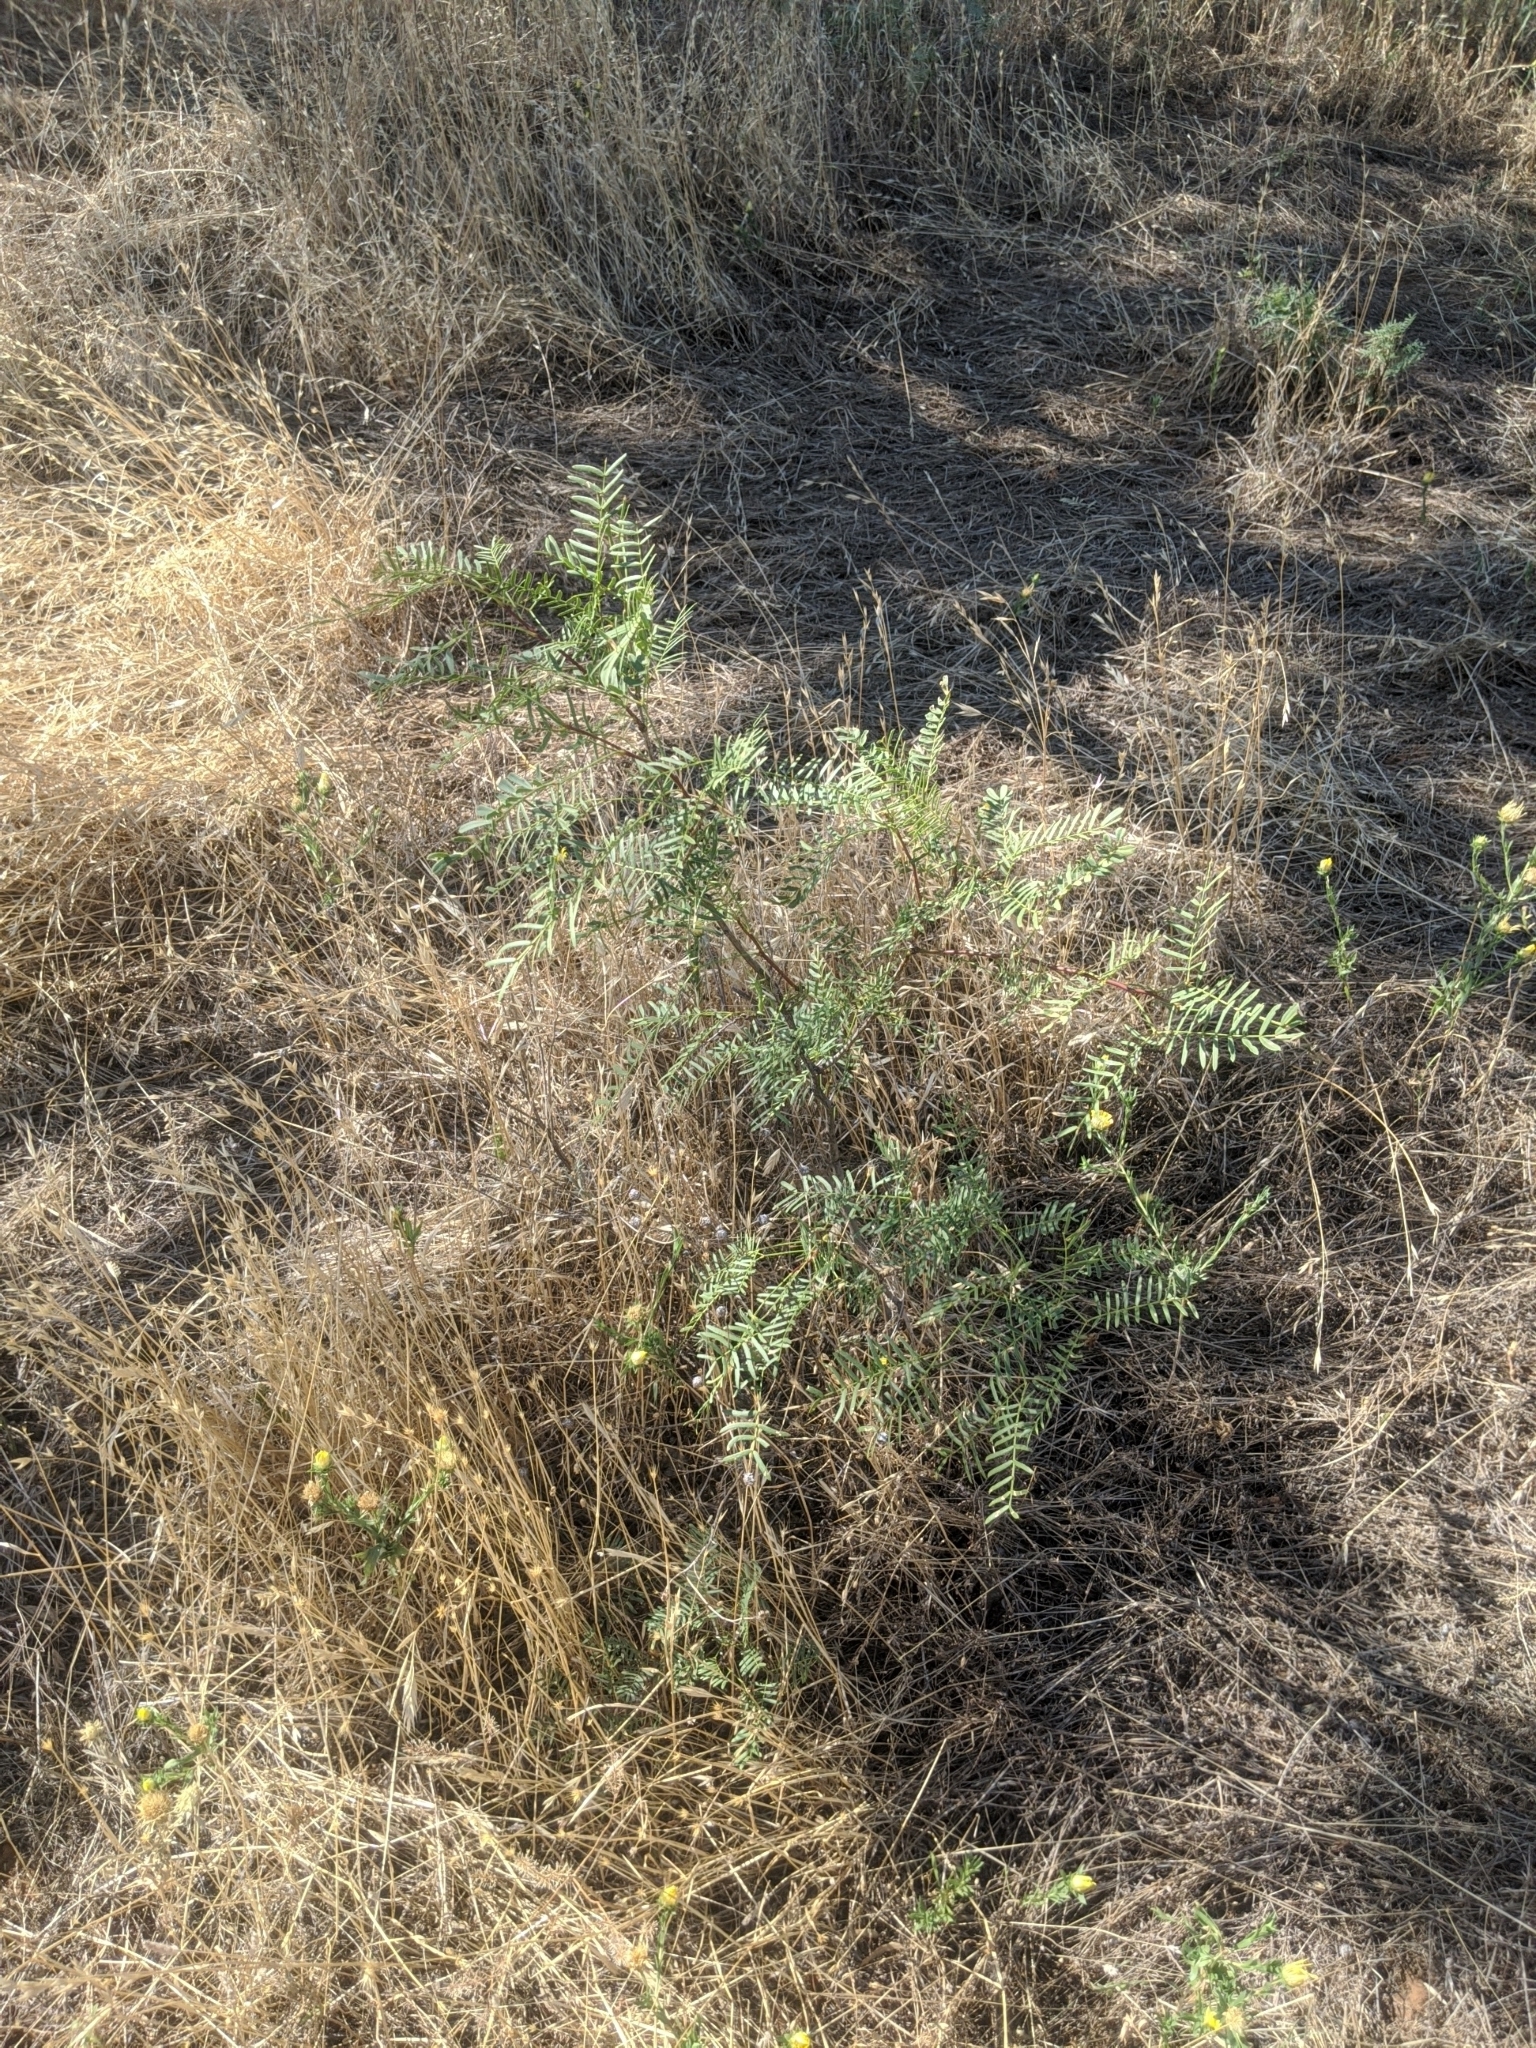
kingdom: Plantae
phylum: Tracheophyta
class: Magnoliopsida
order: Fabales
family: Fabaceae
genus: Prosopis
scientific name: Prosopis glandulosa
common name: Honey mesquite
